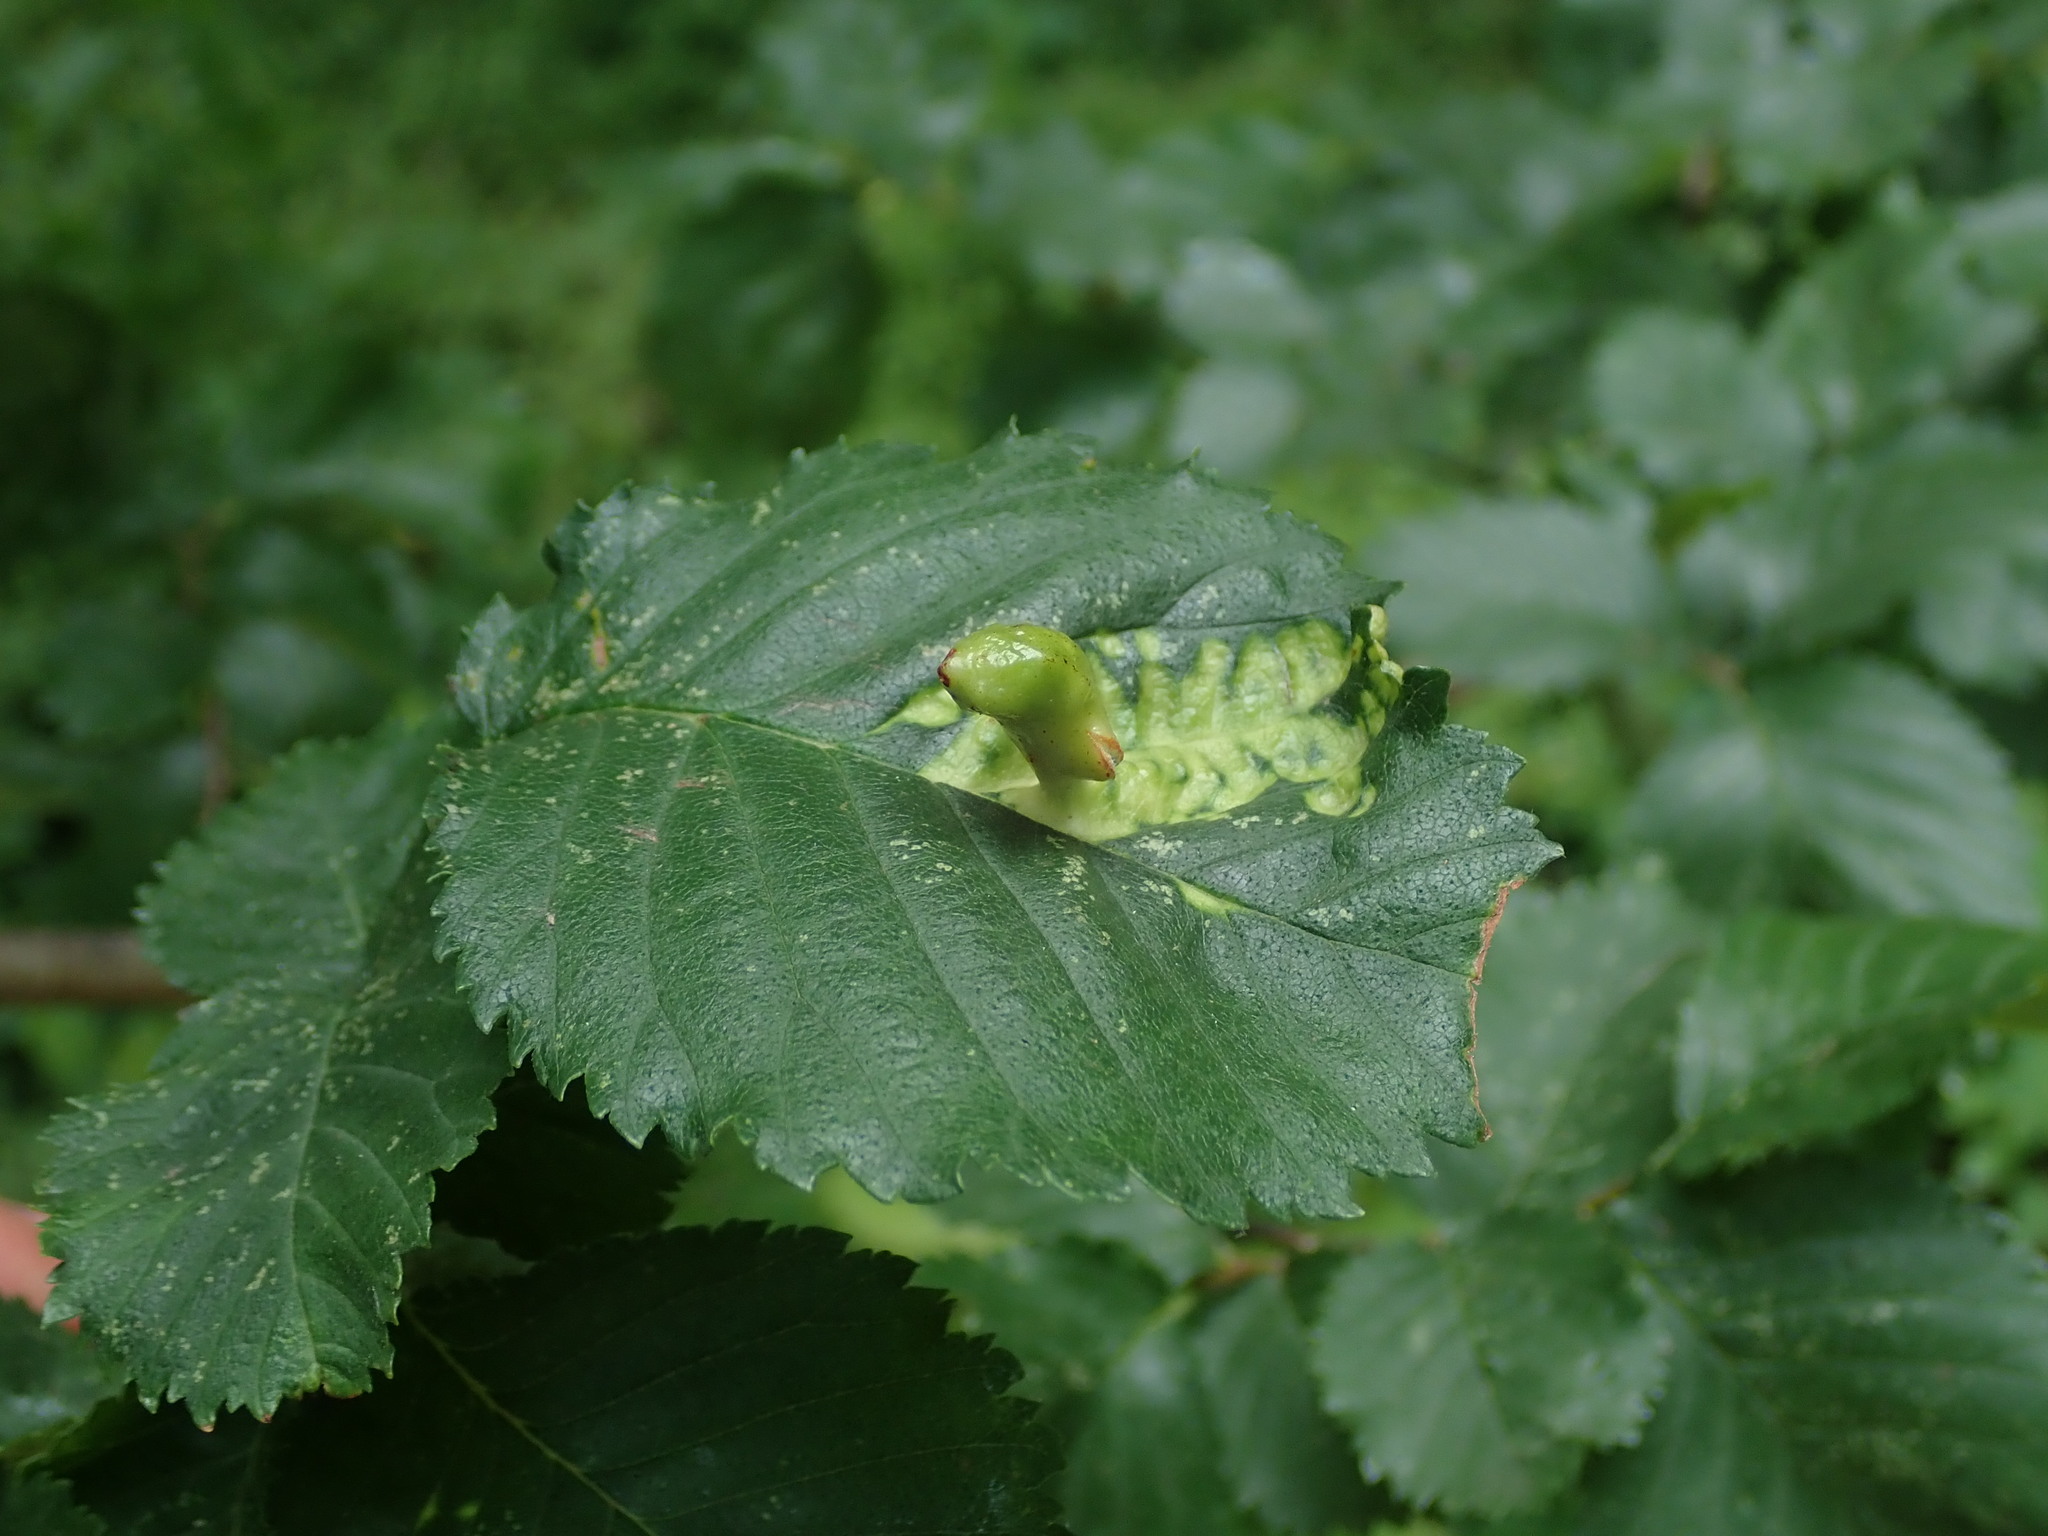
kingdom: Animalia
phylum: Arthropoda
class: Insecta
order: Hemiptera
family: Aphididae
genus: Tetraneura
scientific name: Tetraneura ulmi
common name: Aphid
